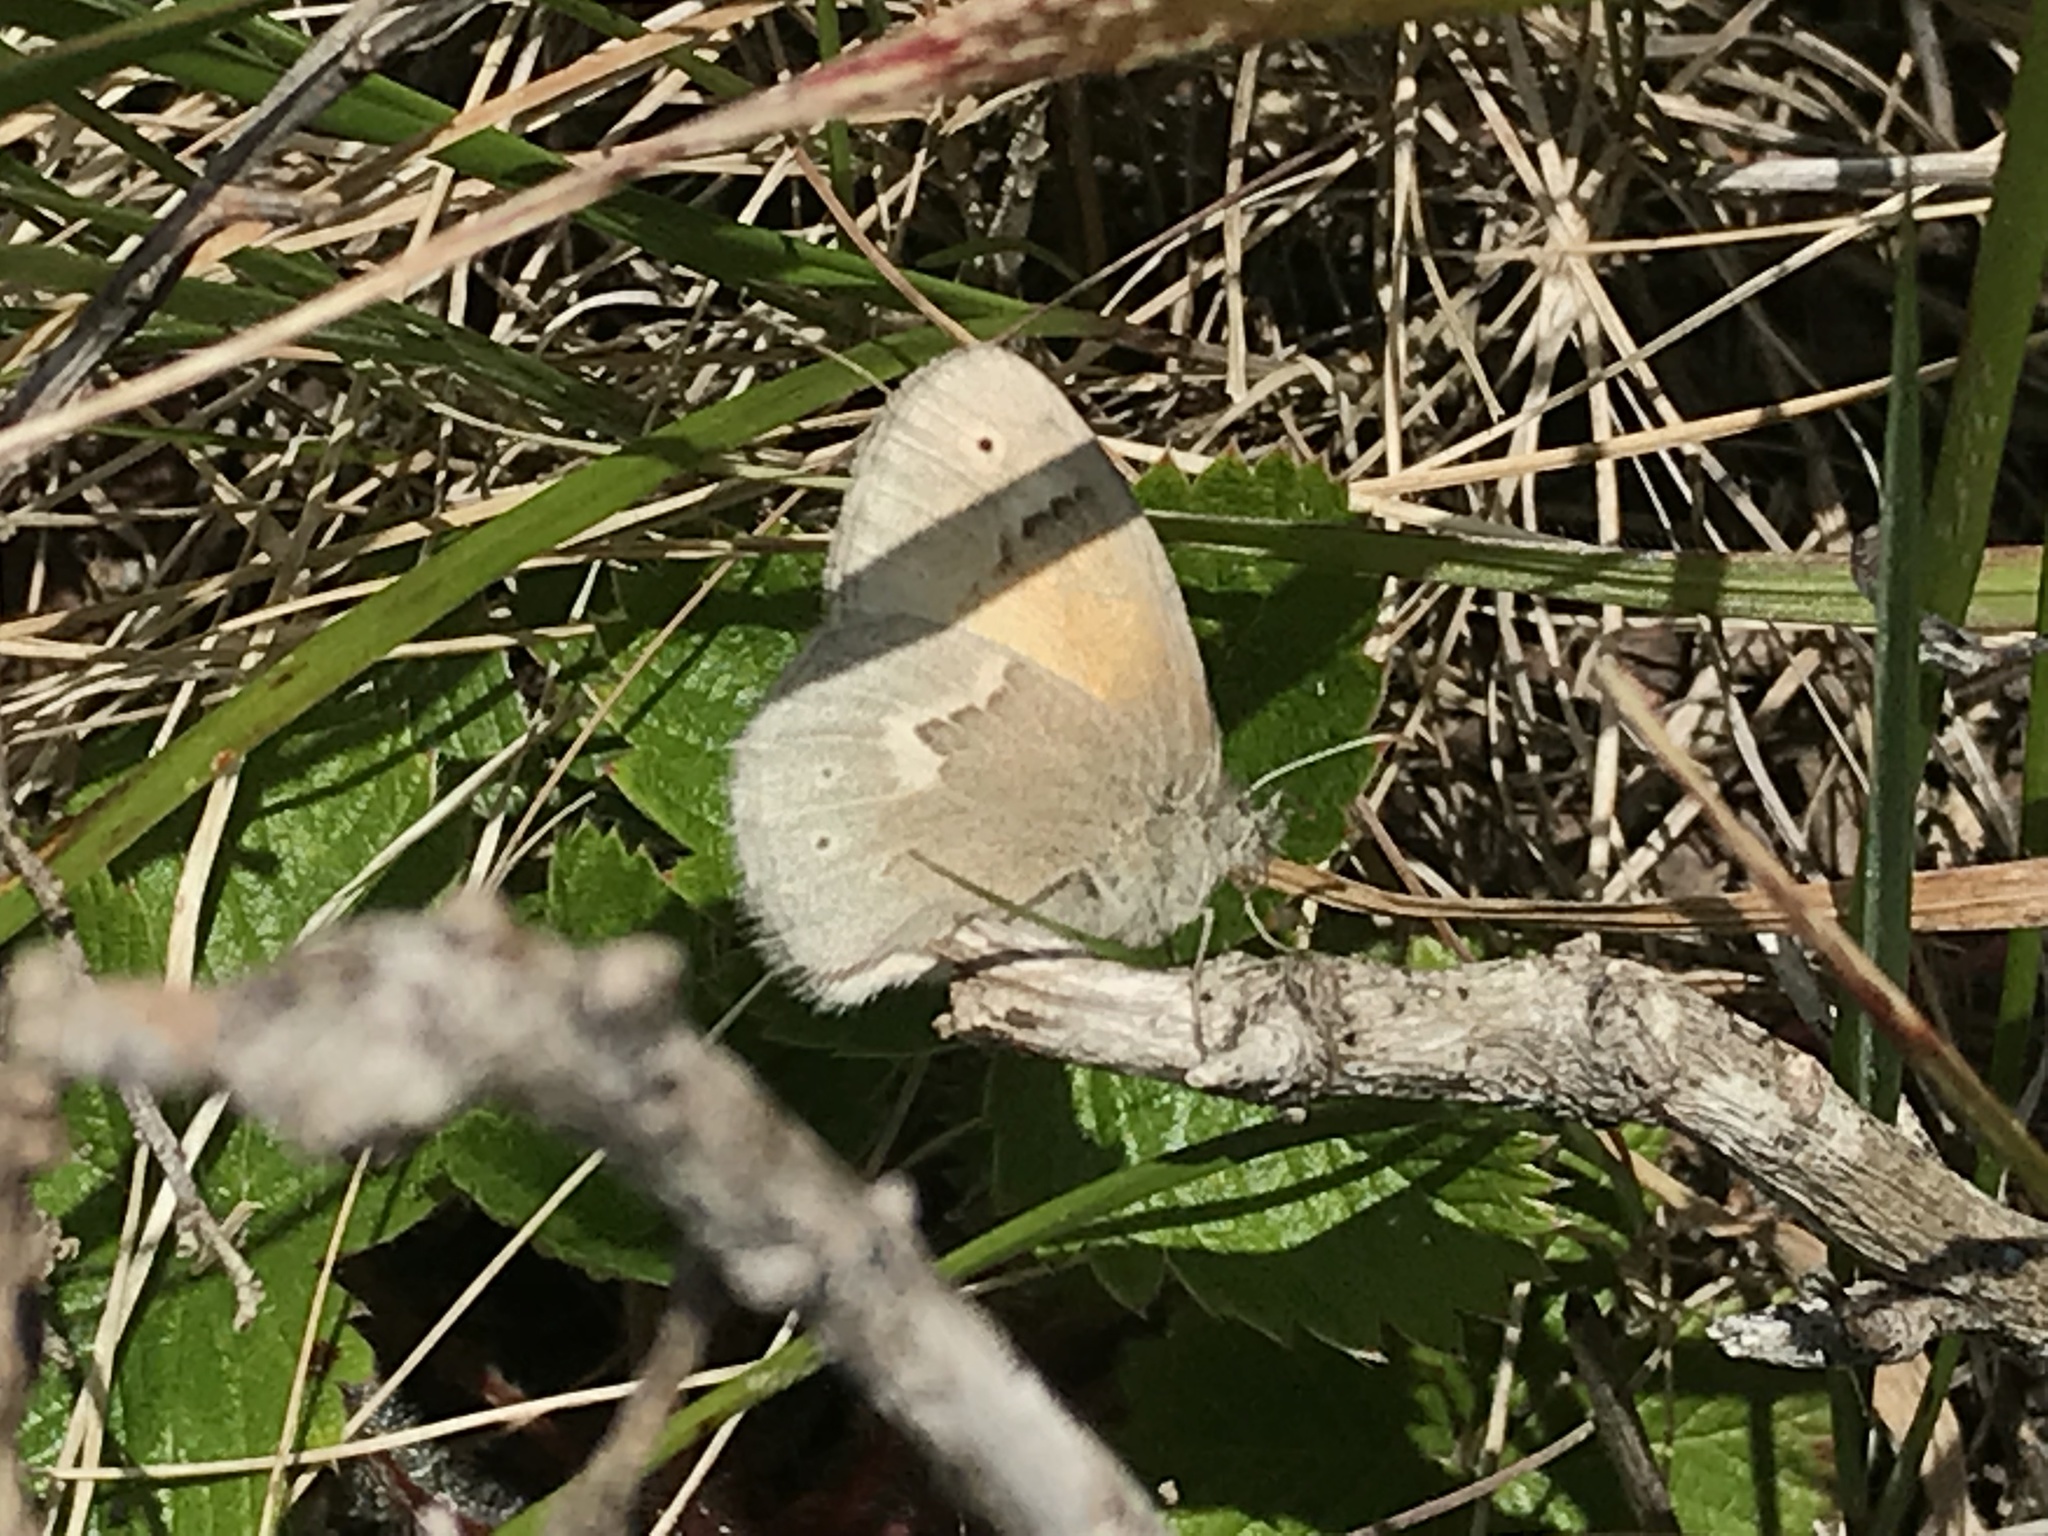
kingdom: Animalia
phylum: Arthropoda
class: Insecta
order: Lepidoptera
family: Nymphalidae
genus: Coenonympha
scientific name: Coenonympha california
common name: Common ringlet
